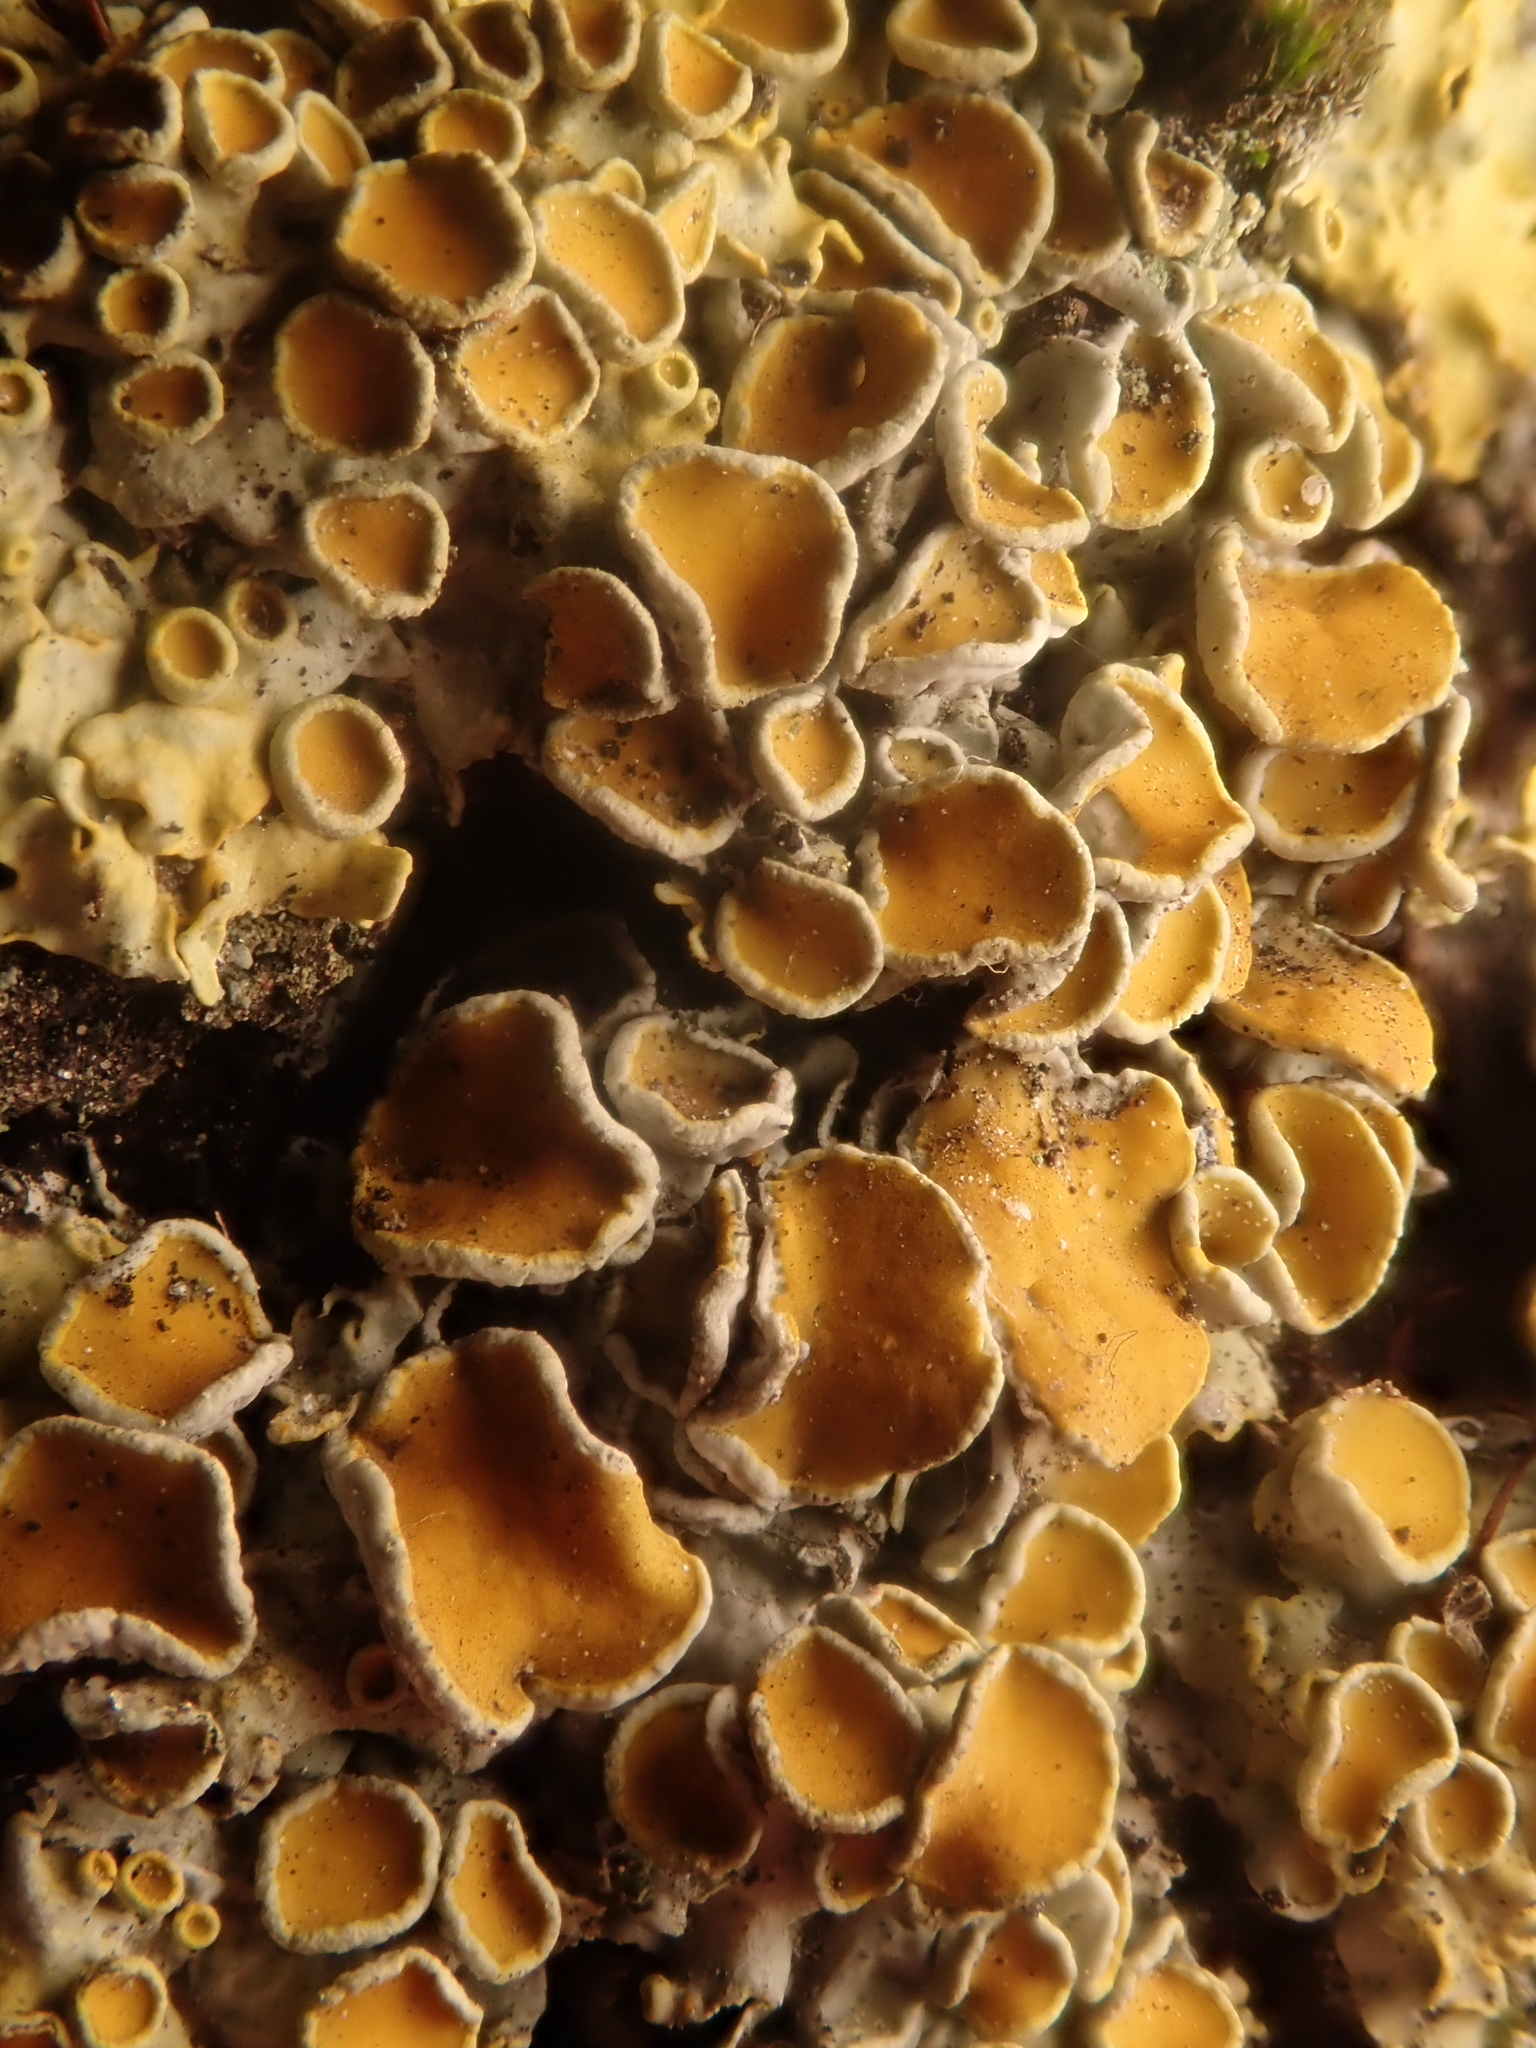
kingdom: Fungi
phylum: Ascomycota
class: Lecanoromycetes
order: Teloschistales
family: Teloschistaceae
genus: Xanthoria
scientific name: Xanthoria parietina
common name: Common orange lichen
